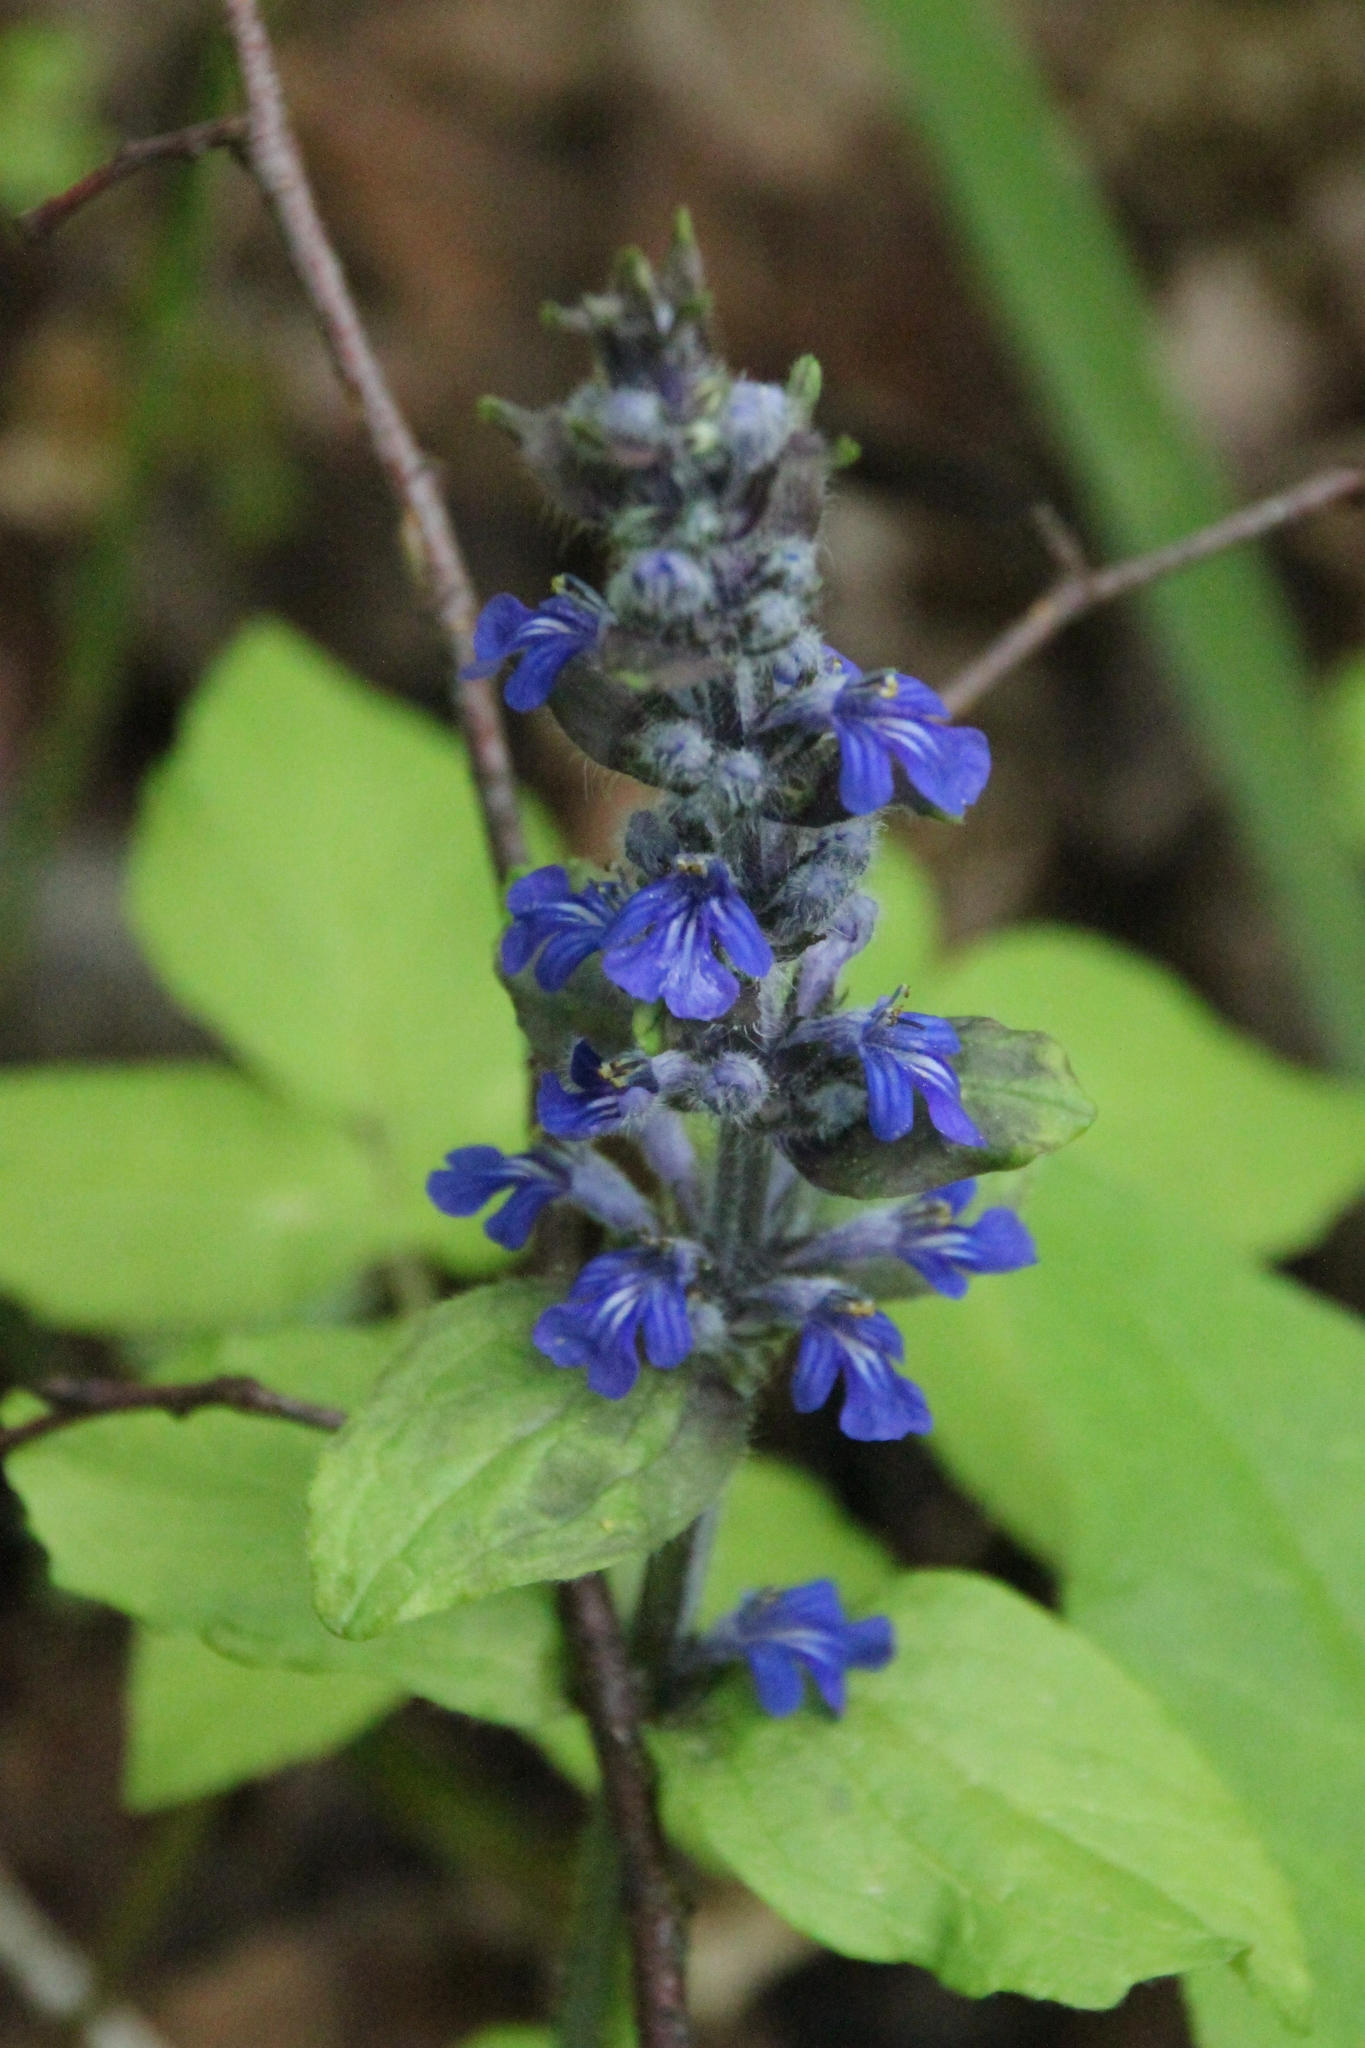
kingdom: Plantae
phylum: Tracheophyta
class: Magnoliopsida
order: Lamiales
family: Lamiaceae
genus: Ajuga
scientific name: Ajuga reptans
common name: Bugle
